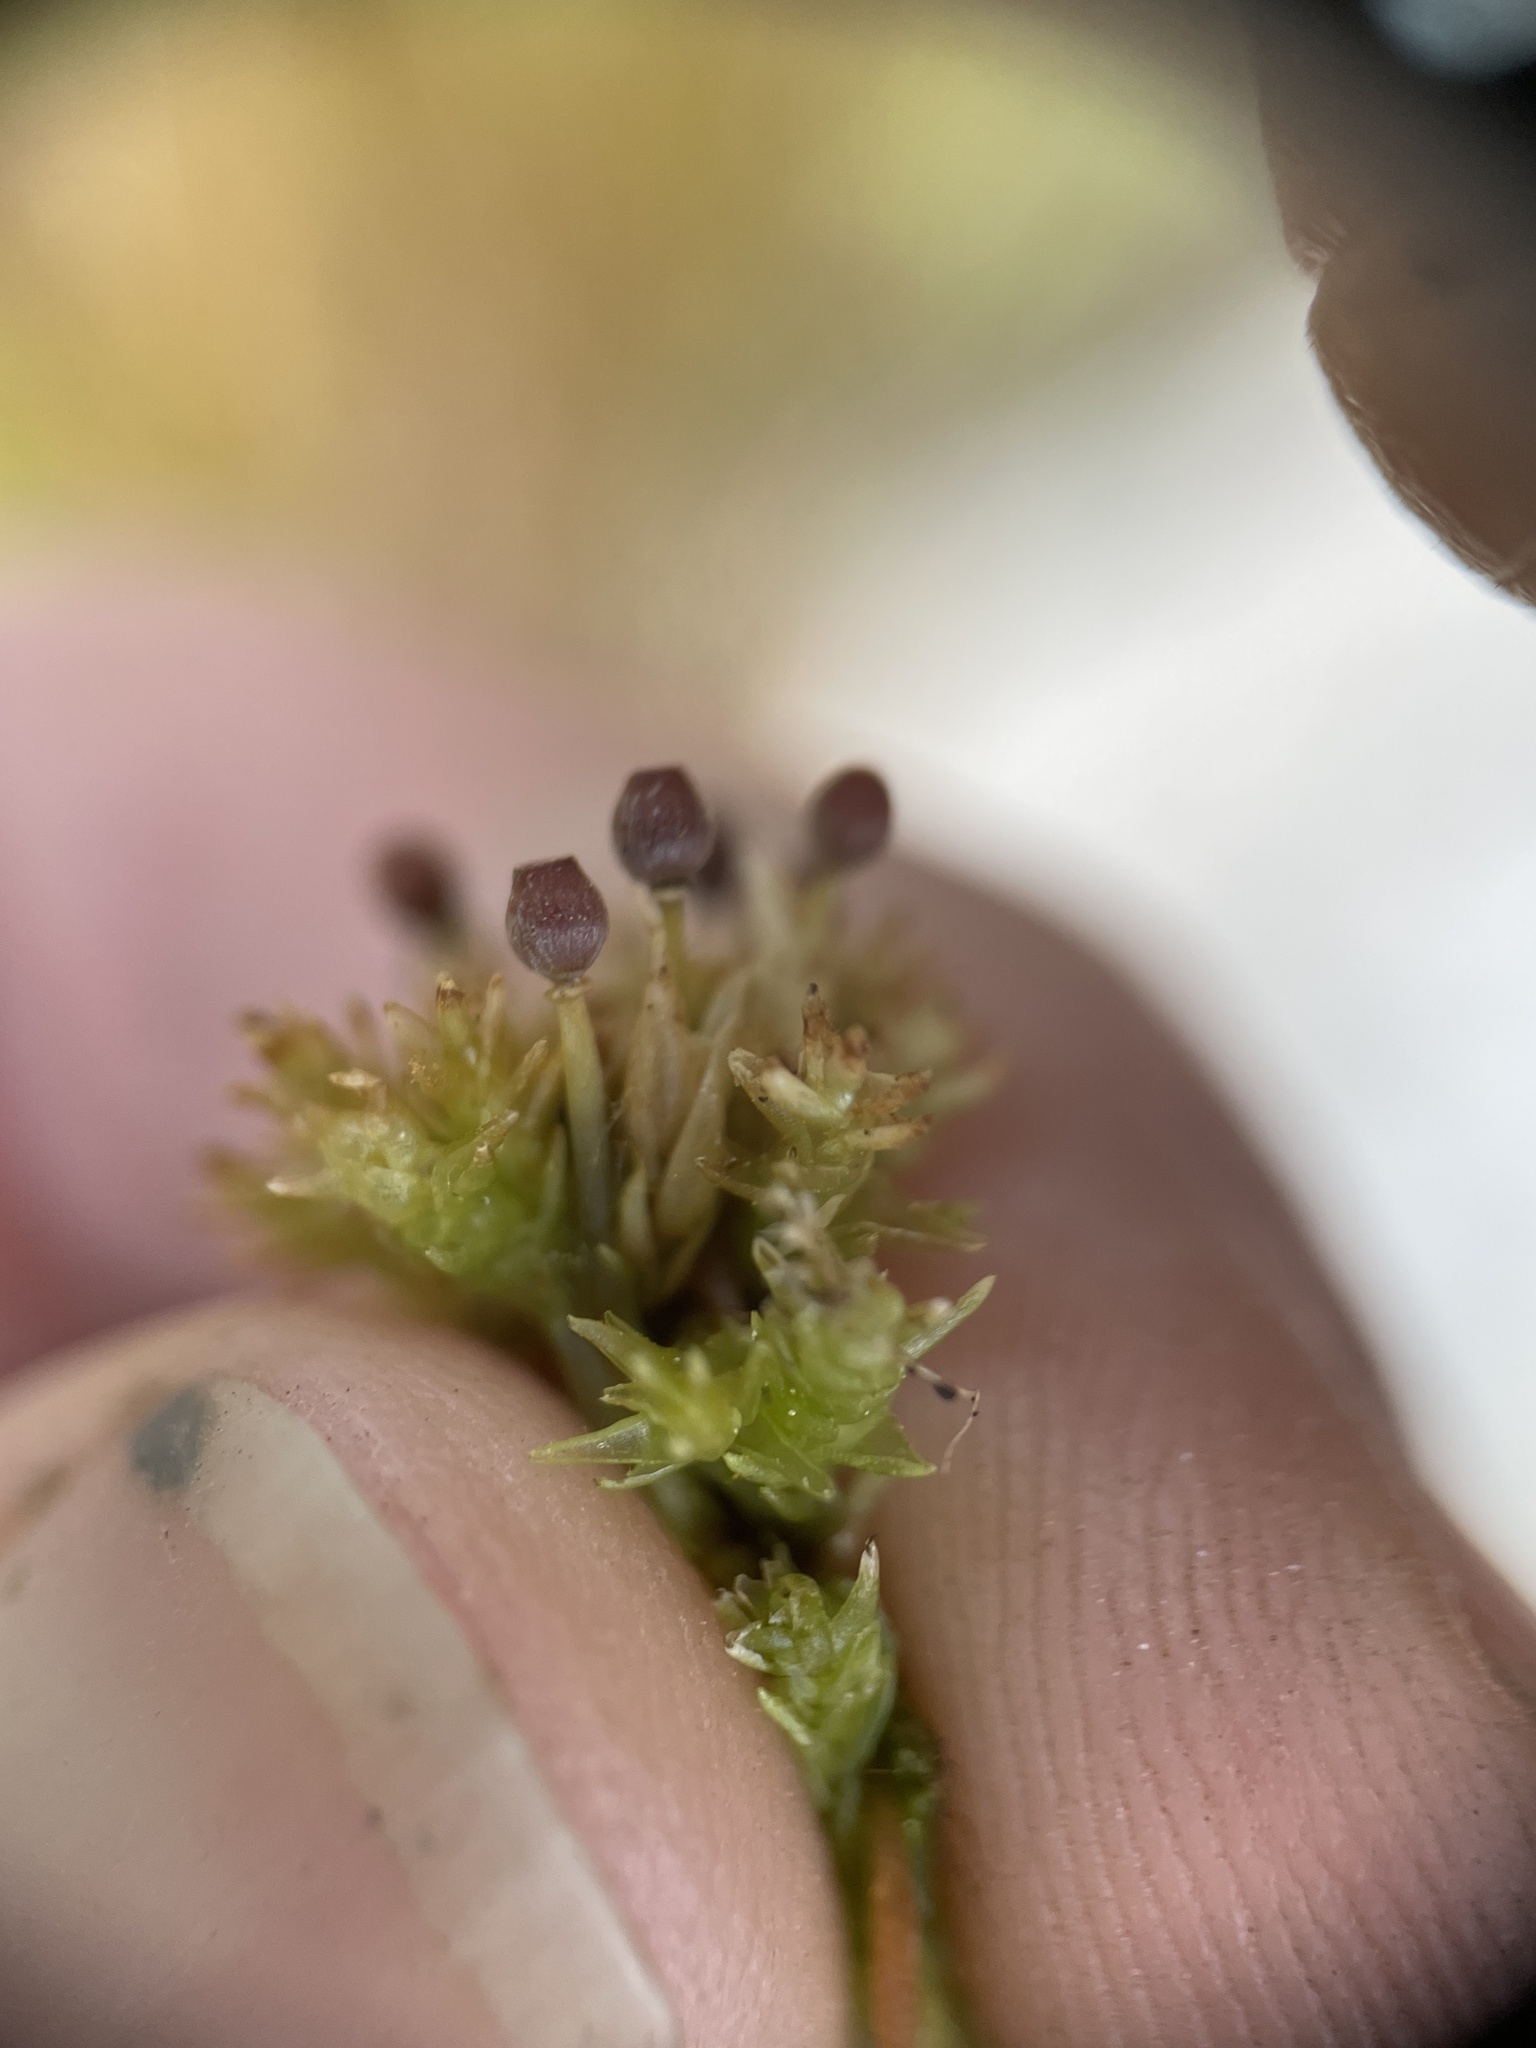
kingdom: Plantae
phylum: Bryophyta
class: Sphagnopsida
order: Sphagnales
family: Sphagnaceae
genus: Sphagnum
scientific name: Sphagnum compactum
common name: Compact peat moss
